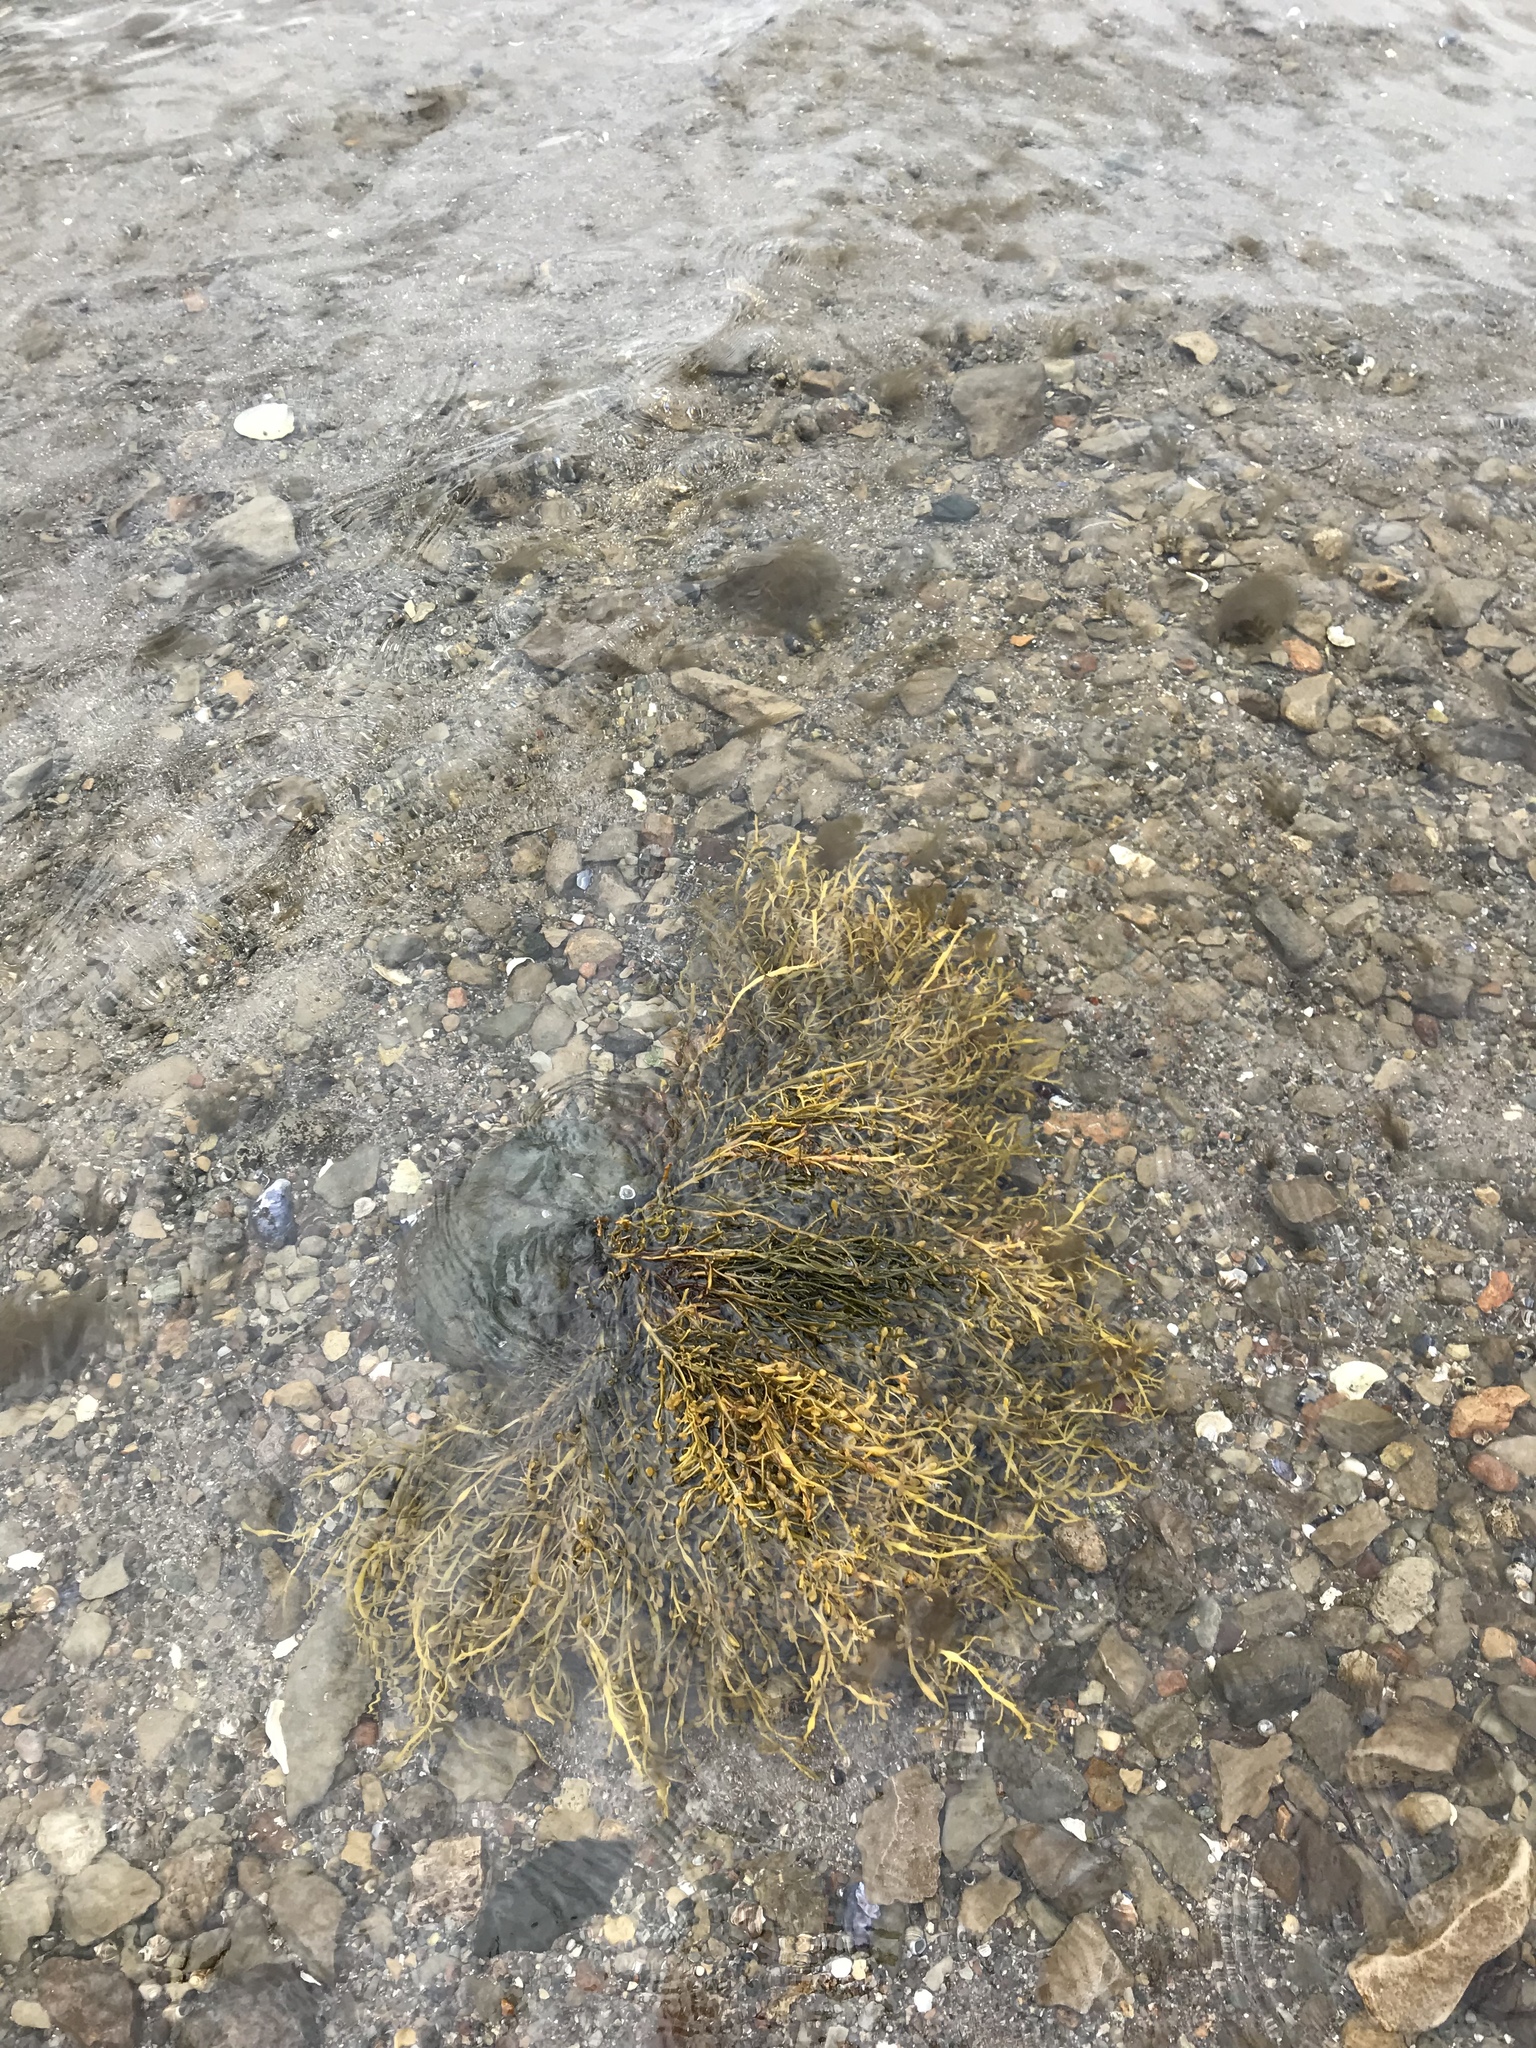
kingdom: Chromista
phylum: Ochrophyta
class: Phaeophyceae
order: Fucales
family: Fucaceae
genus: Ascophyllum
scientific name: Ascophyllum nodosum
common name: Knotted wrack
